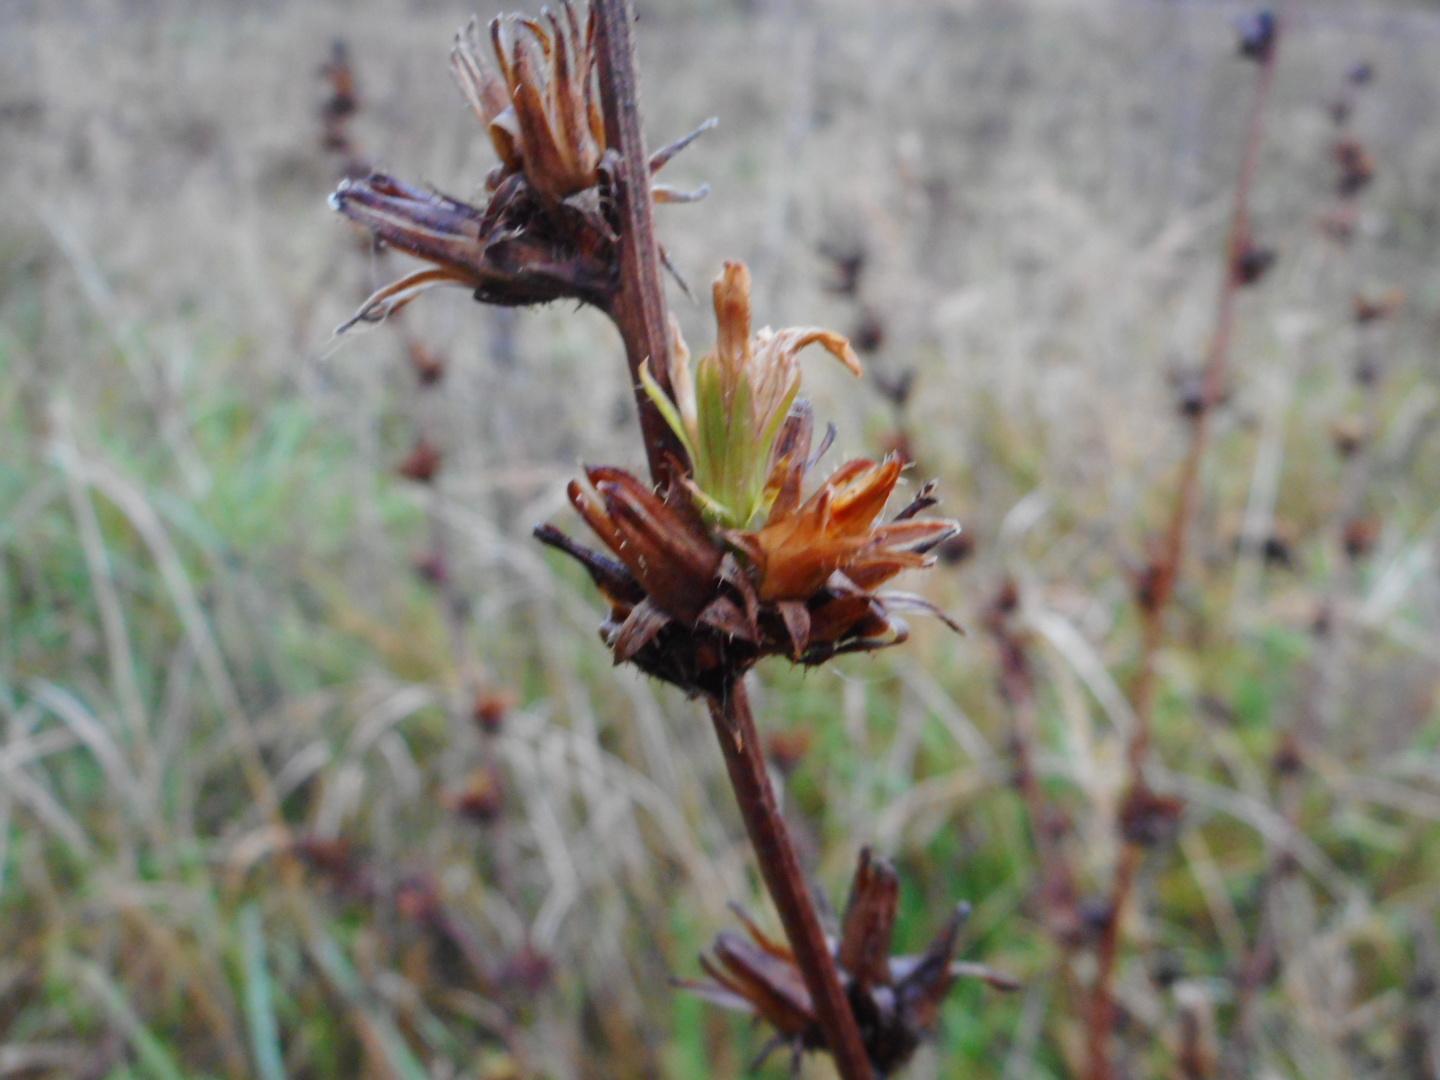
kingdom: Plantae
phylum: Tracheophyta
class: Magnoliopsida
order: Asterales
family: Asteraceae
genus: Cichorium
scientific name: Cichorium intybus
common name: Chicory
